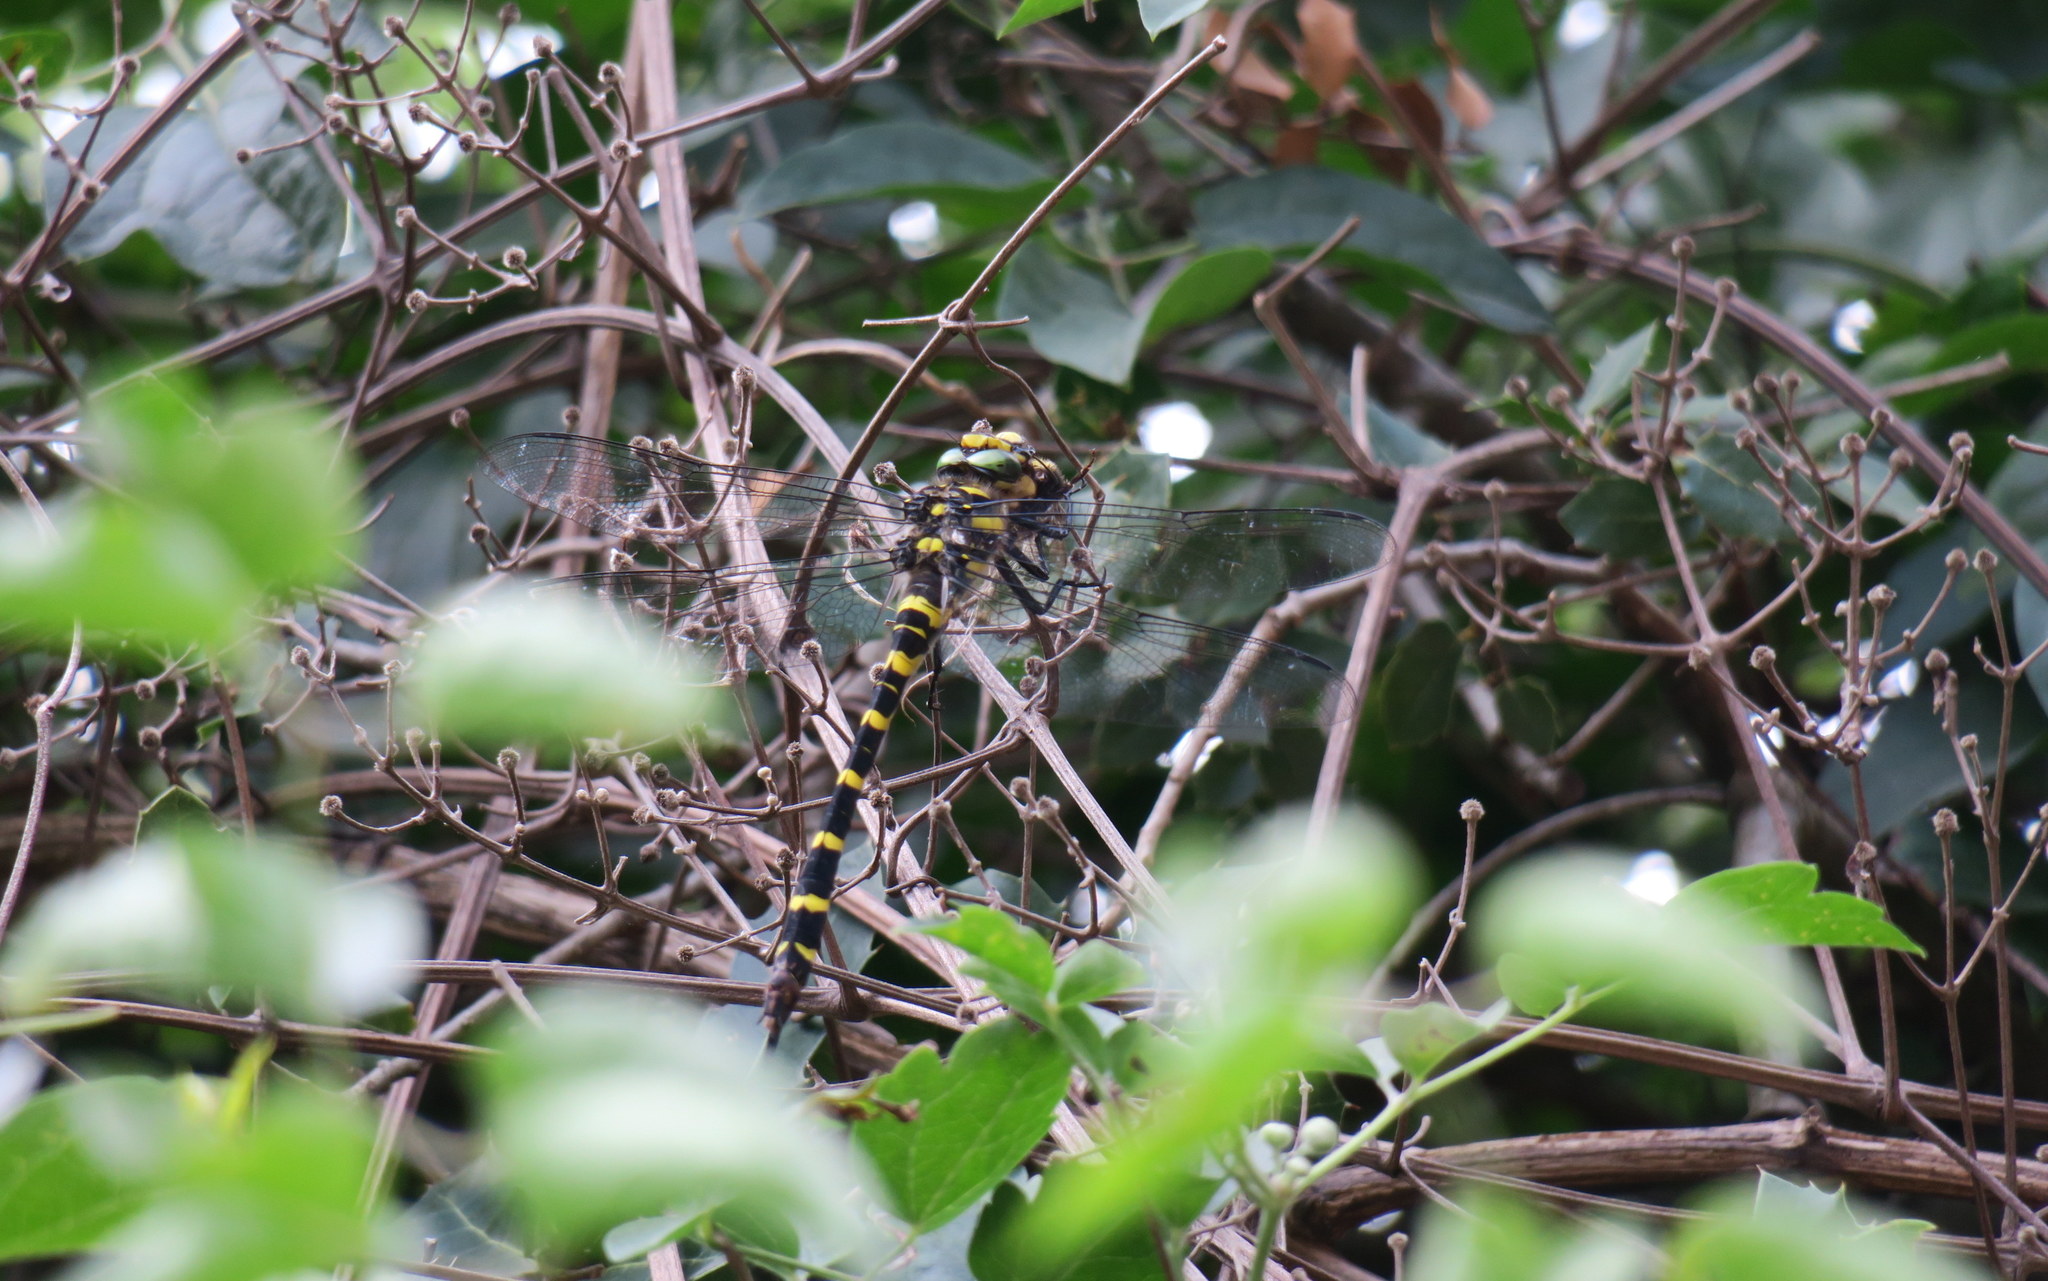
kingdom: Animalia
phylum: Arthropoda
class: Insecta
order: Odonata
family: Cordulegastridae
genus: Cordulegaster
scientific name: Cordulegaster helladica
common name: Greek goldenring
